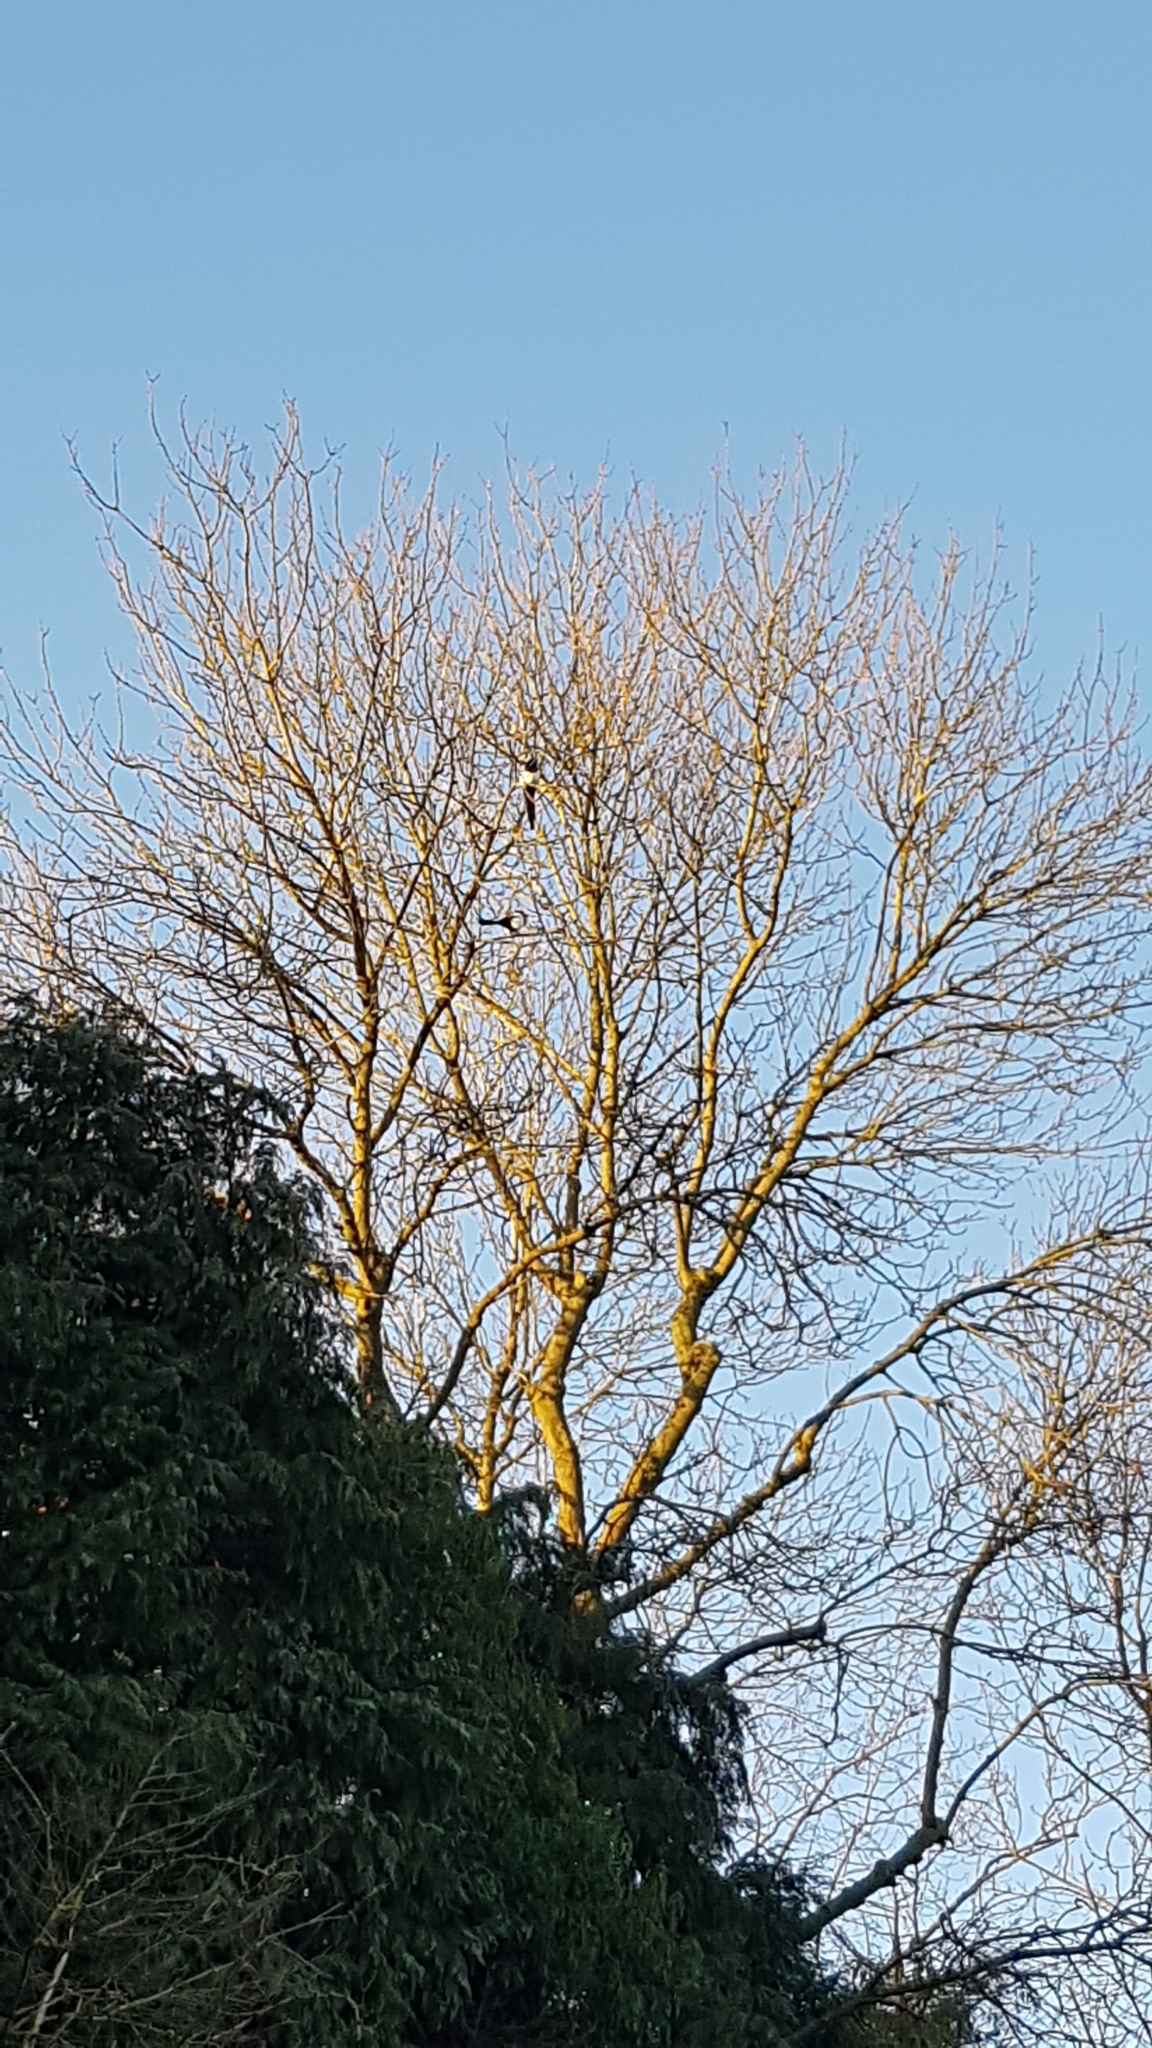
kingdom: Animalia
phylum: Chordata
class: Aves
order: Passeriformes
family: Corvidae
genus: Pica
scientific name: Pica pica
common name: Eurasian magpie
